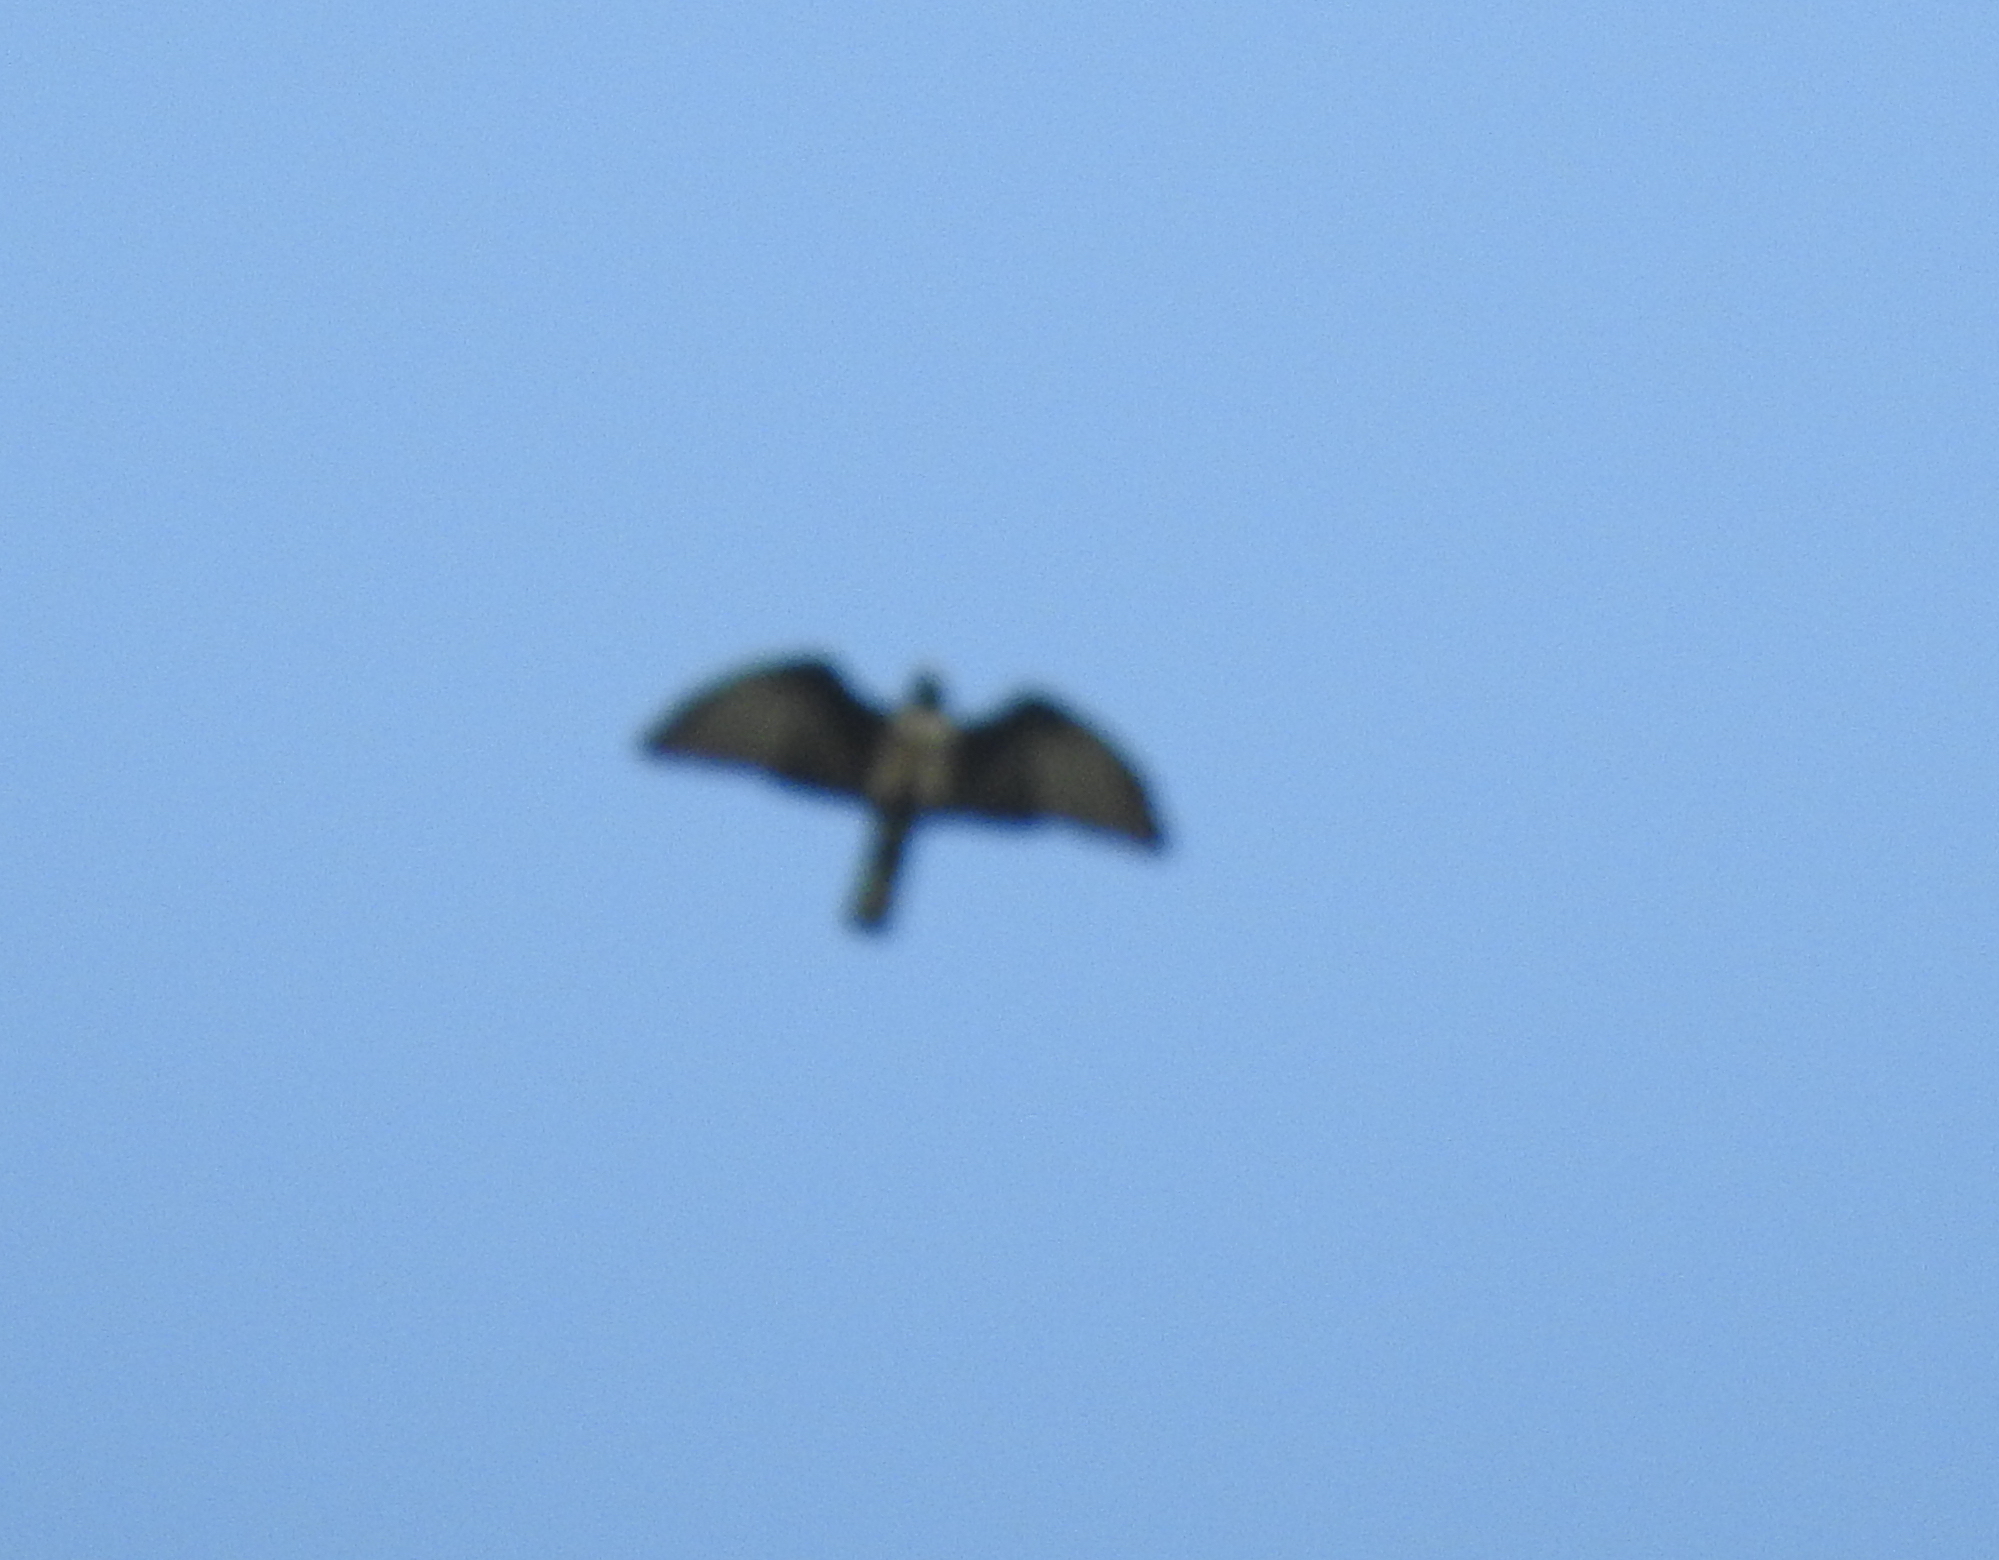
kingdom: Animalia
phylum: Chordata
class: Aves
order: Accipitriformes
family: Accipitridae
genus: Aviceda
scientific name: Aviceda leuphotes
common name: Black baza
